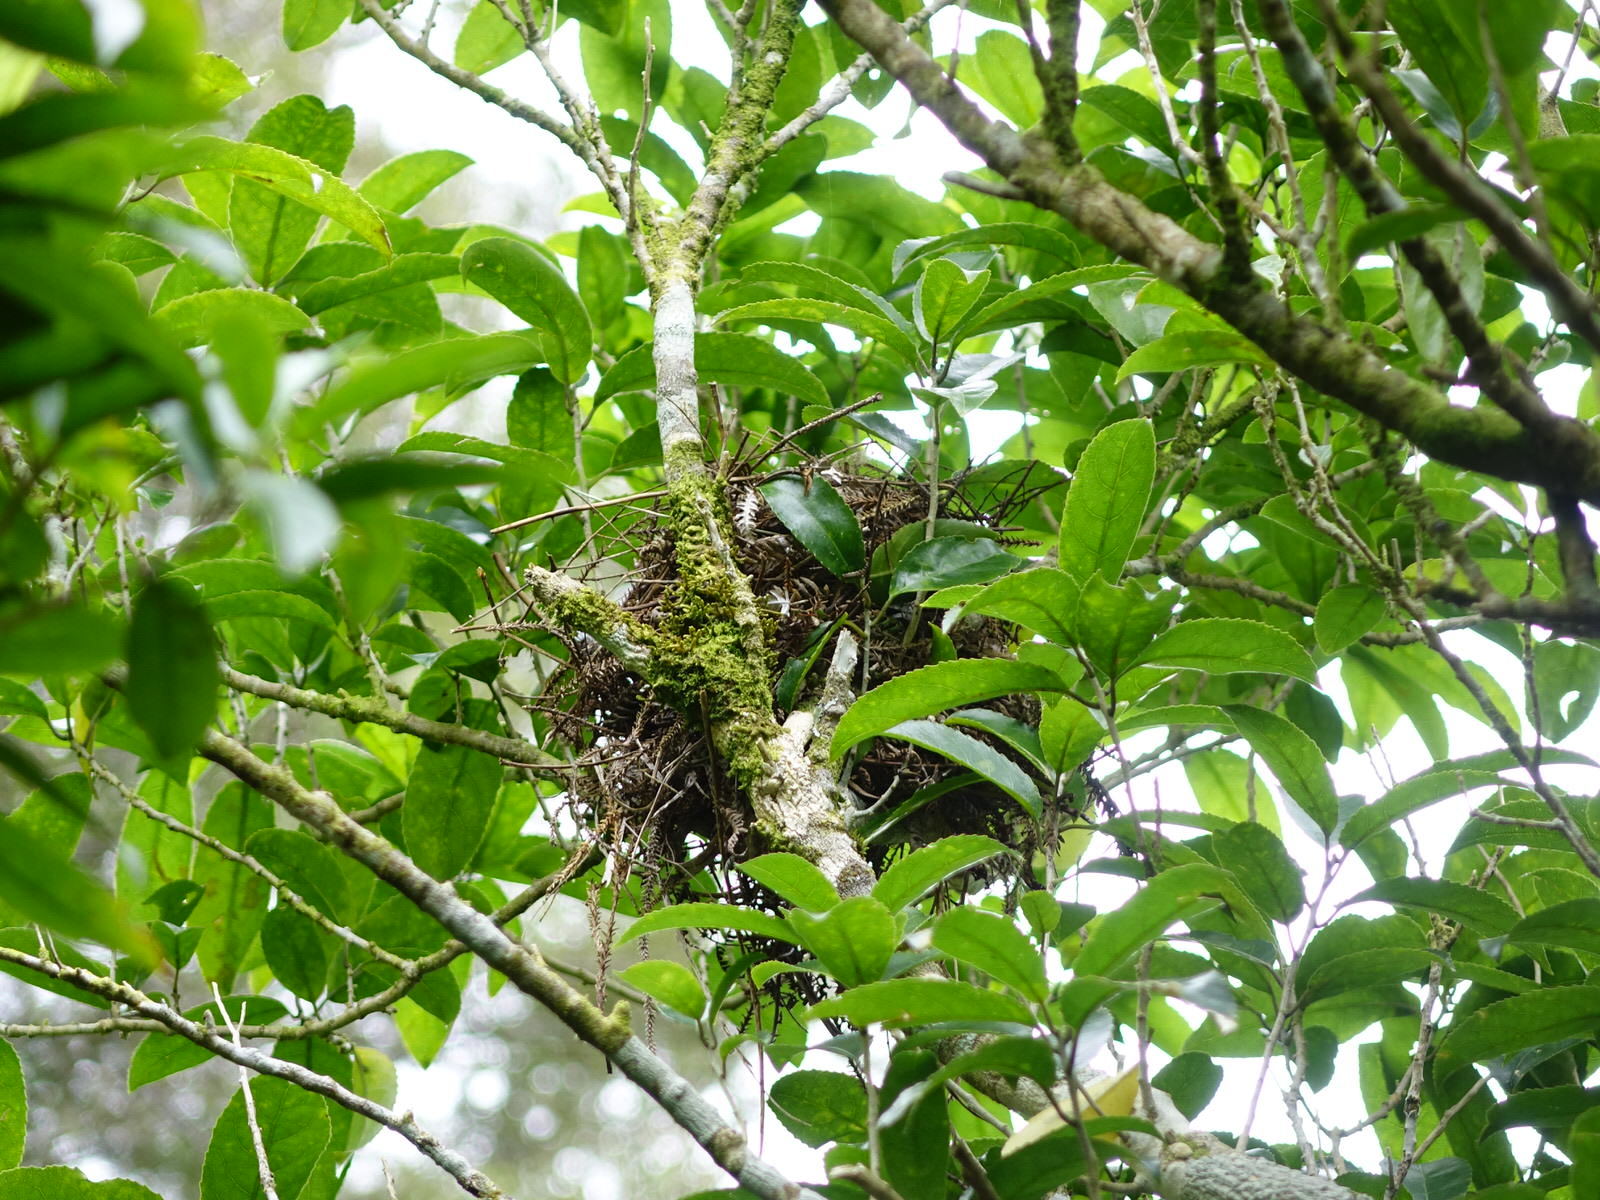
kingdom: Animalia
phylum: Chordata
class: Aves
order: Passeriformes
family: Turdidae
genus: Turdus
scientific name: Turdus merula
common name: Common blackbird
